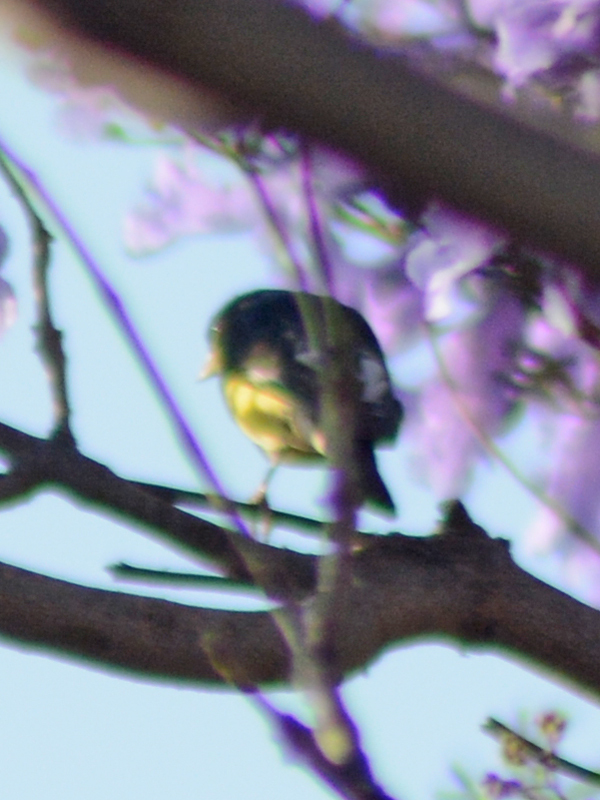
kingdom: Animalia
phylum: Chordata
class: Aves
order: Passeriformes
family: Fringillidae
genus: Spinus
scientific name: Spinus psaltria
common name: Lesser goldfinch
